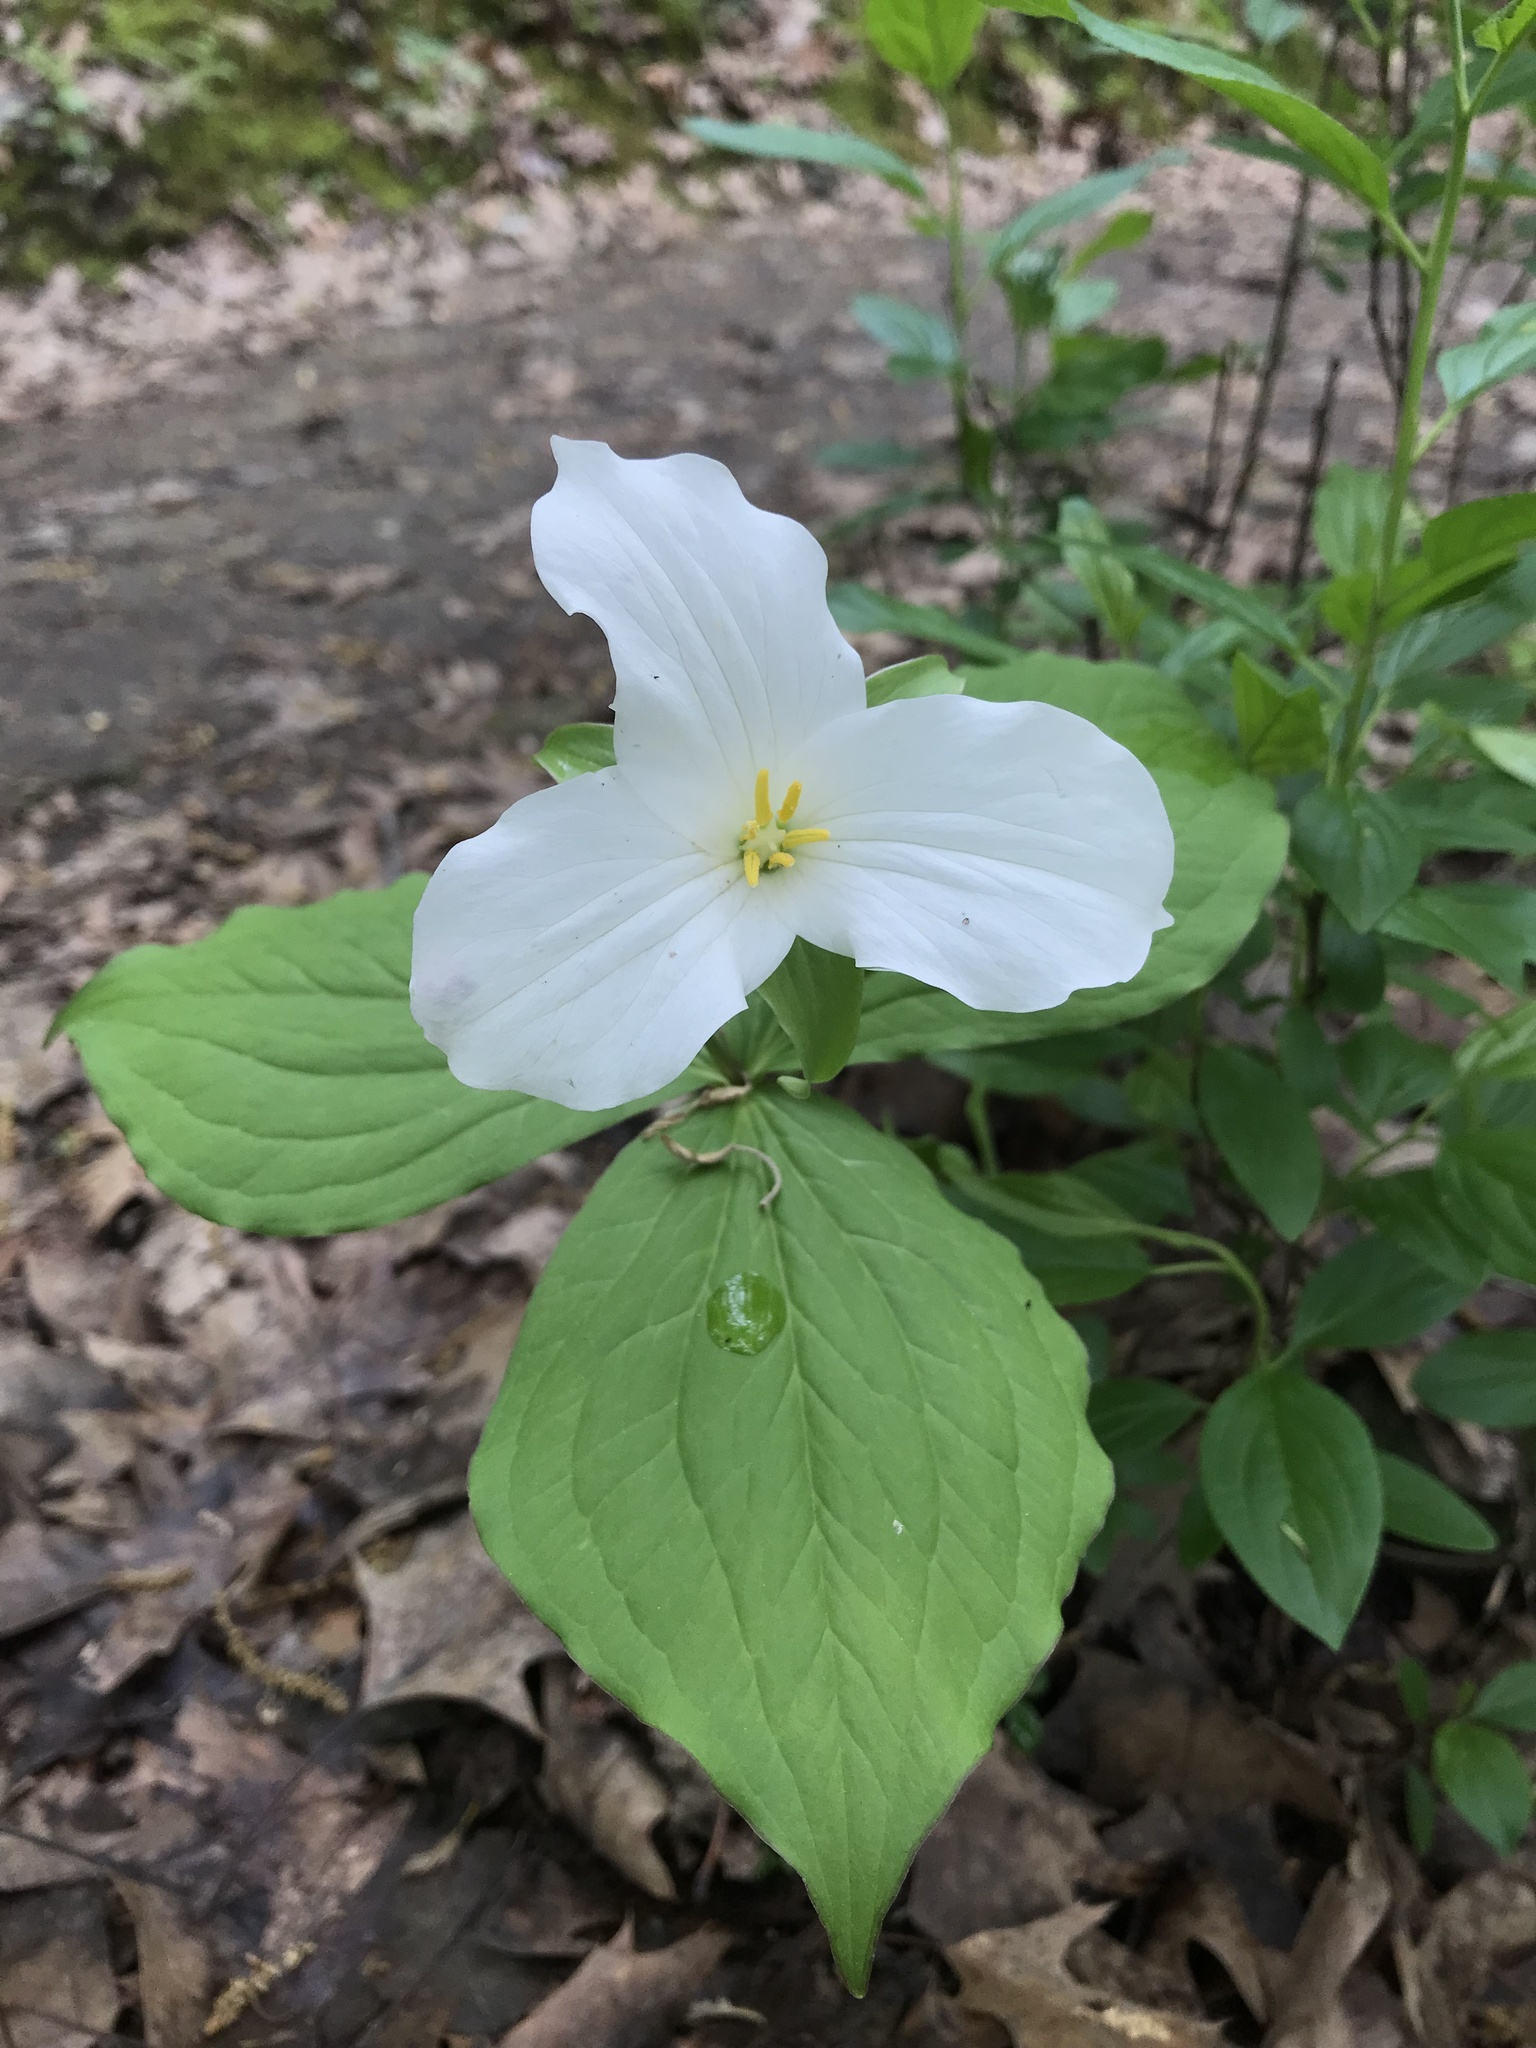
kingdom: Plantae
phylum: Tracheophyta
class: Liliopsida
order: Liliales
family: Melanthiaceae
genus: Trillium
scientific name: Trillium grandiflorum
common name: Great white trillium
